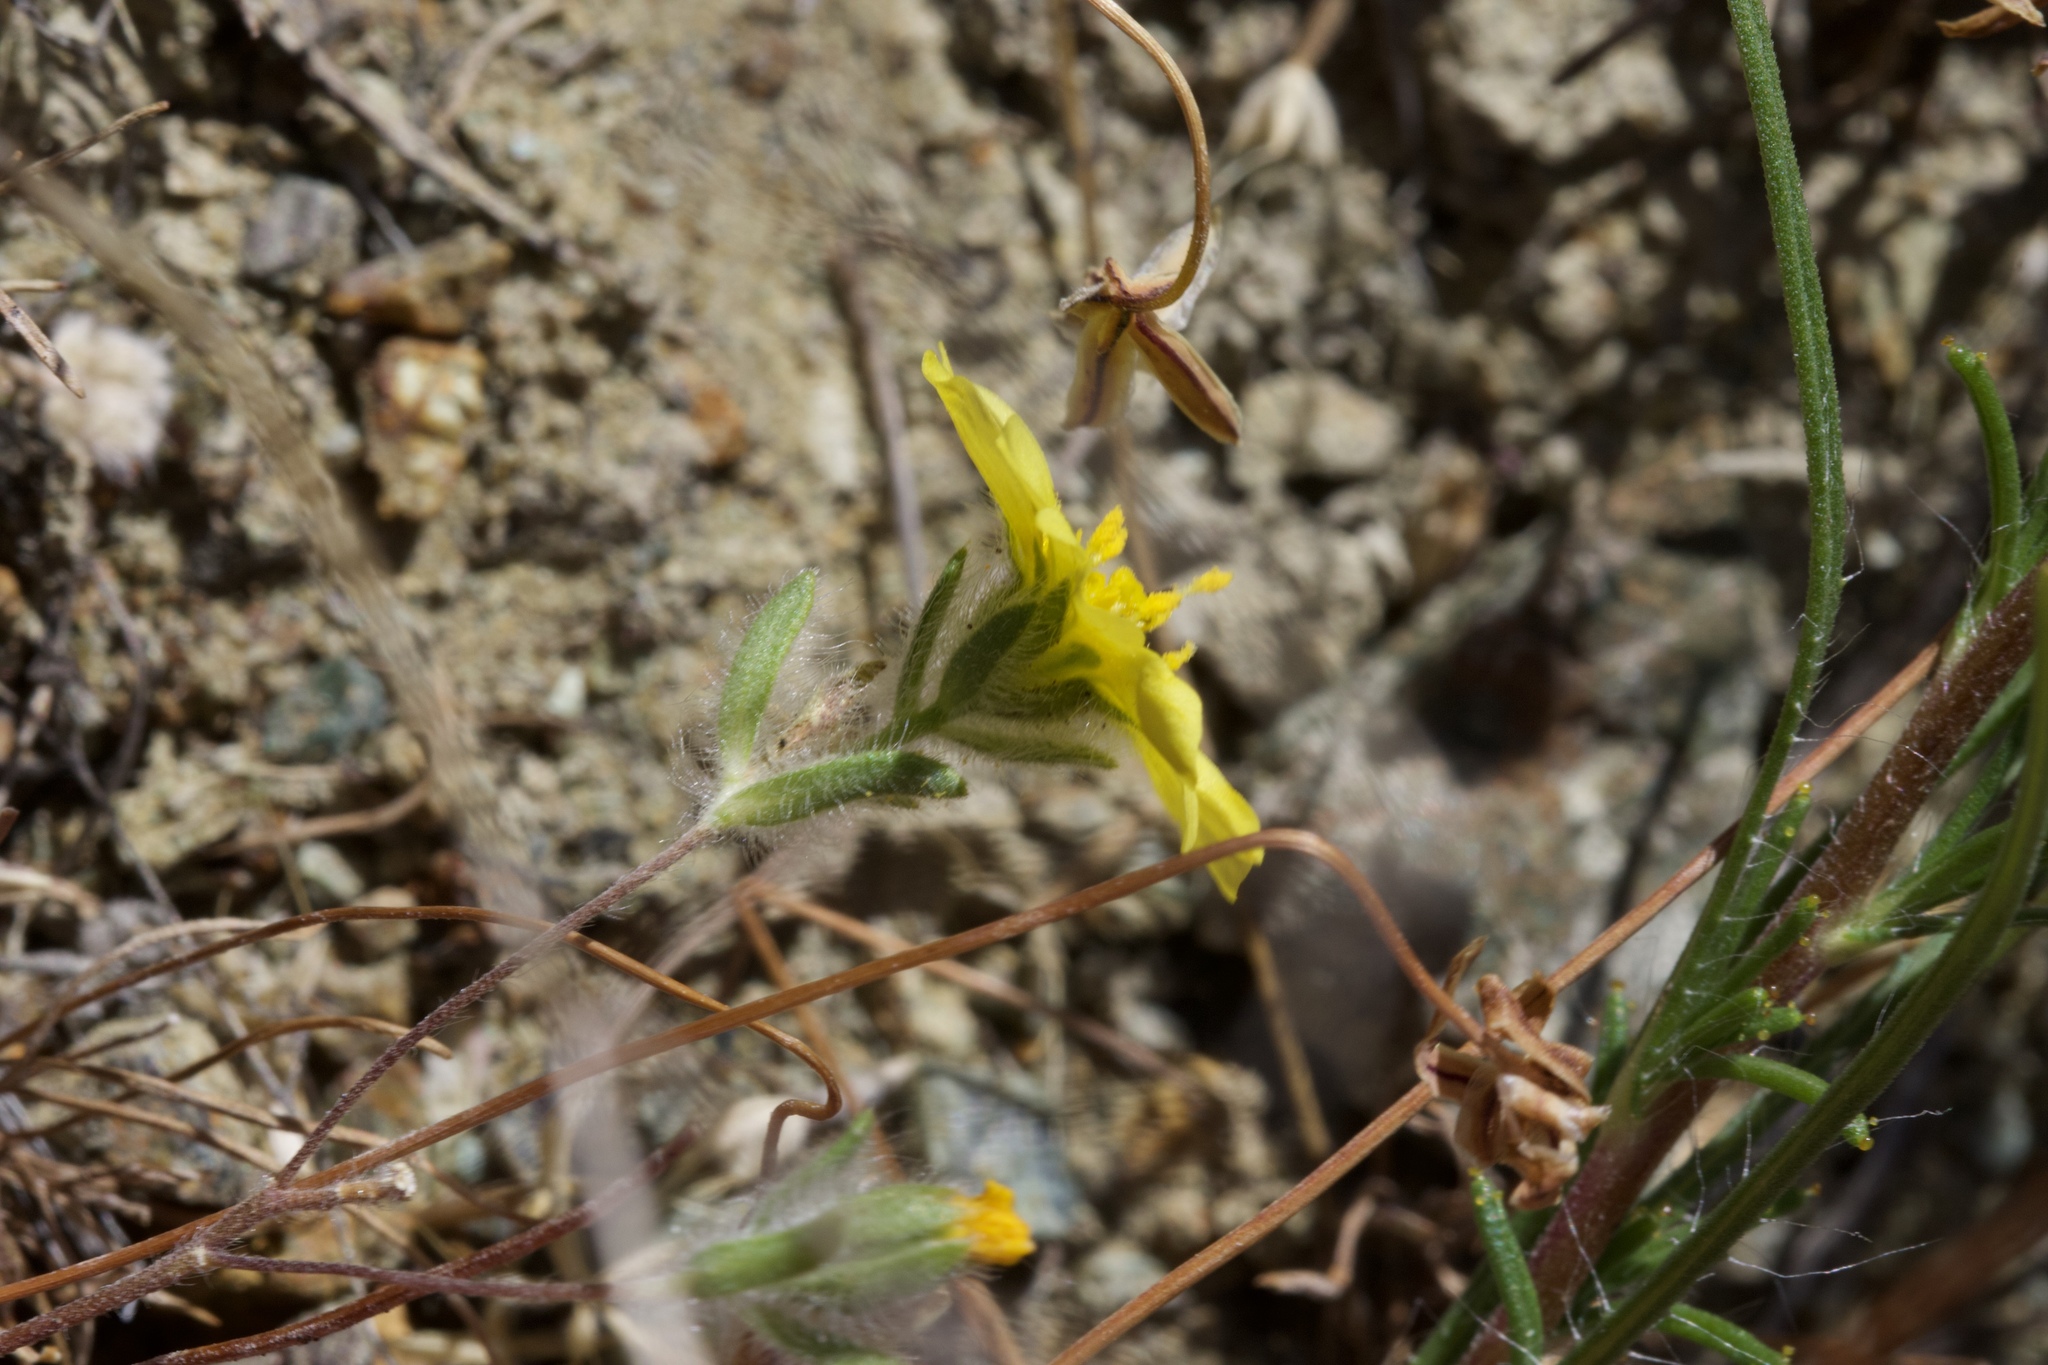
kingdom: Plantae
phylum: Tracheophyta
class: Magnoliopsida
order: Asterales
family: Asteraceae
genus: Lagophylla
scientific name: Lagophylla minor
